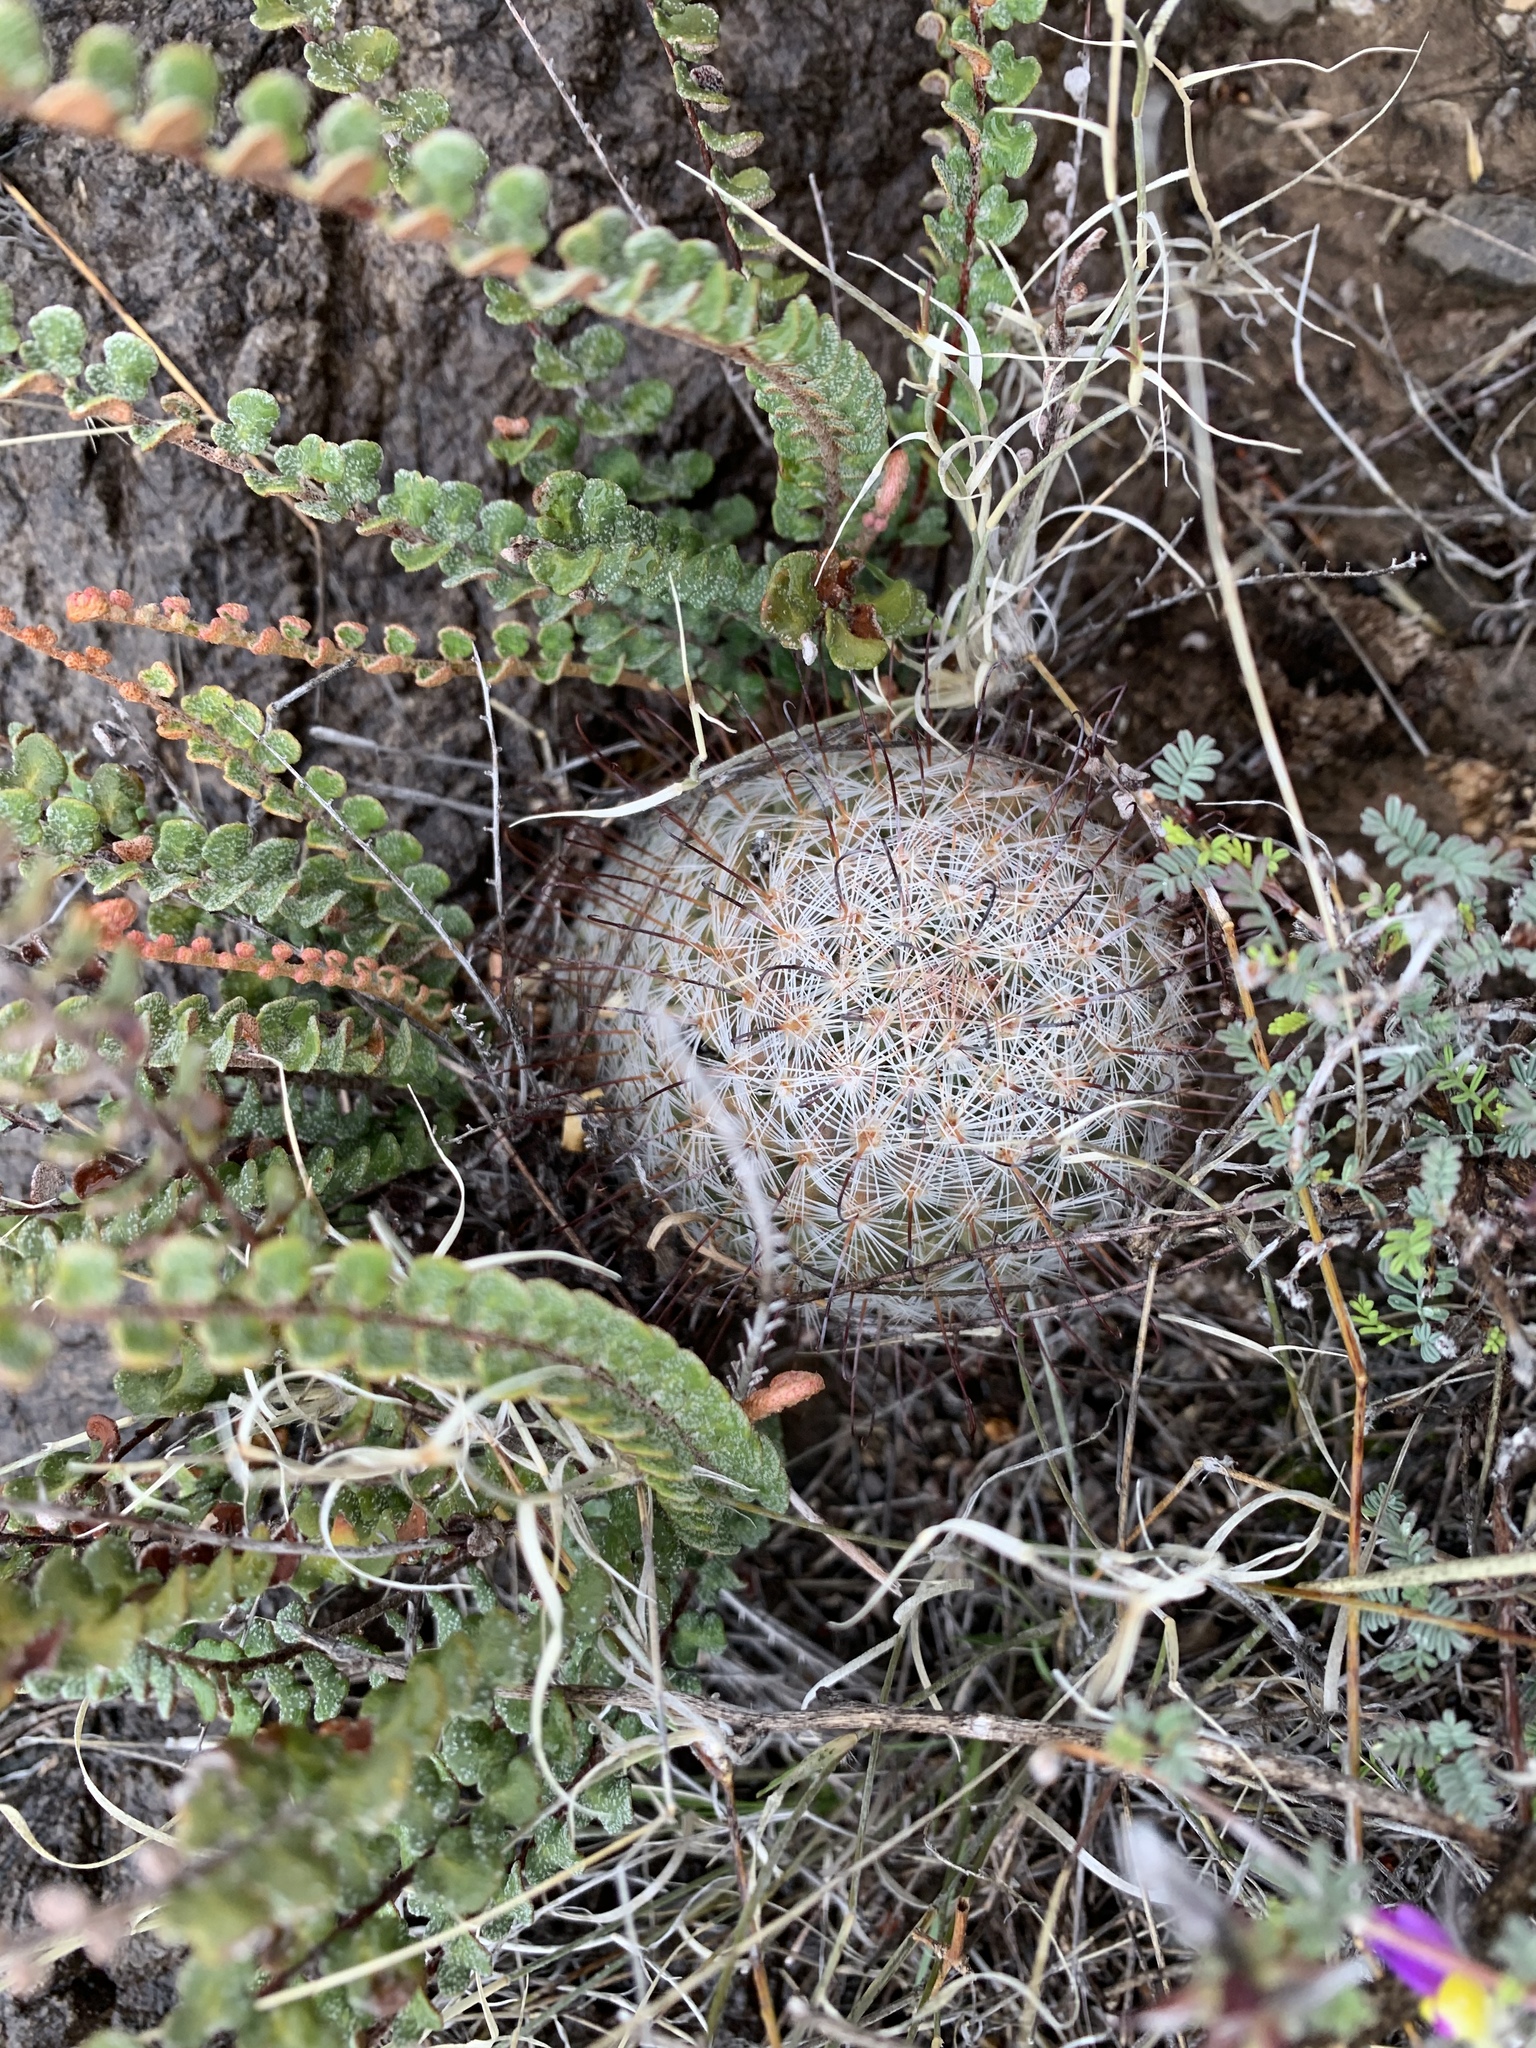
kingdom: Plantae
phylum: Tracheophyta
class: Magnoliopsida
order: Caryophyllales
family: Cactaceae
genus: Cochemiea
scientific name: Cochemiea grahamii
